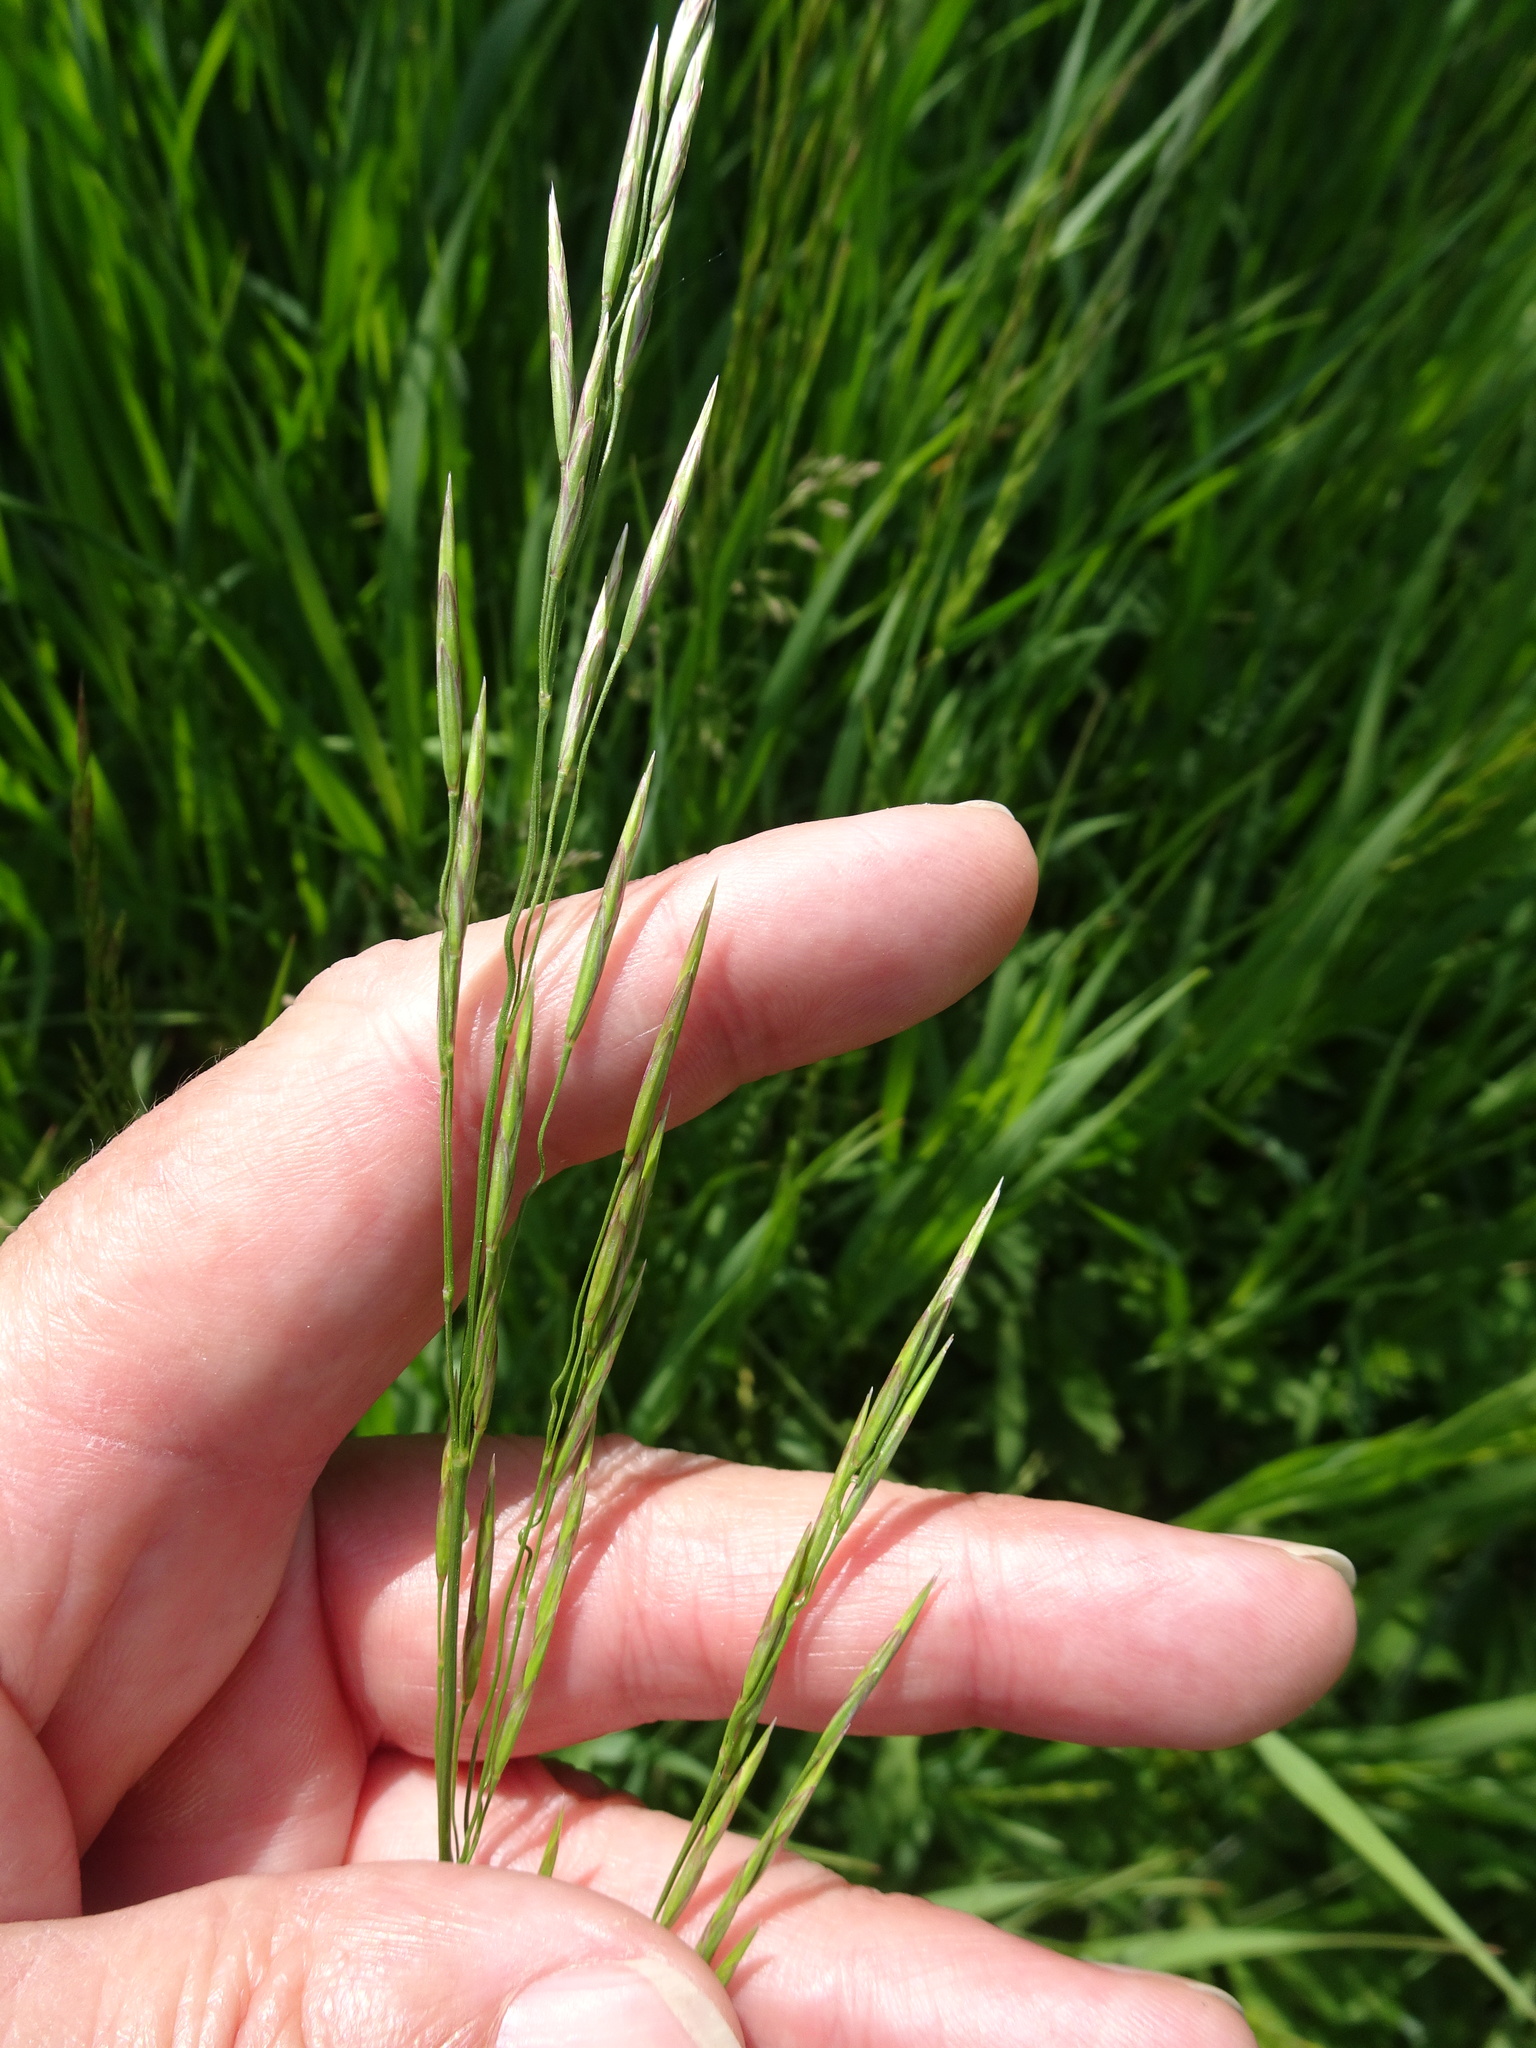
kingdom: Plantae
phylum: Tracheophyta
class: Liliopsida
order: Poales
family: Poaceae
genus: Bromus
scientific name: Bromus inermis
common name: Smooth brome
